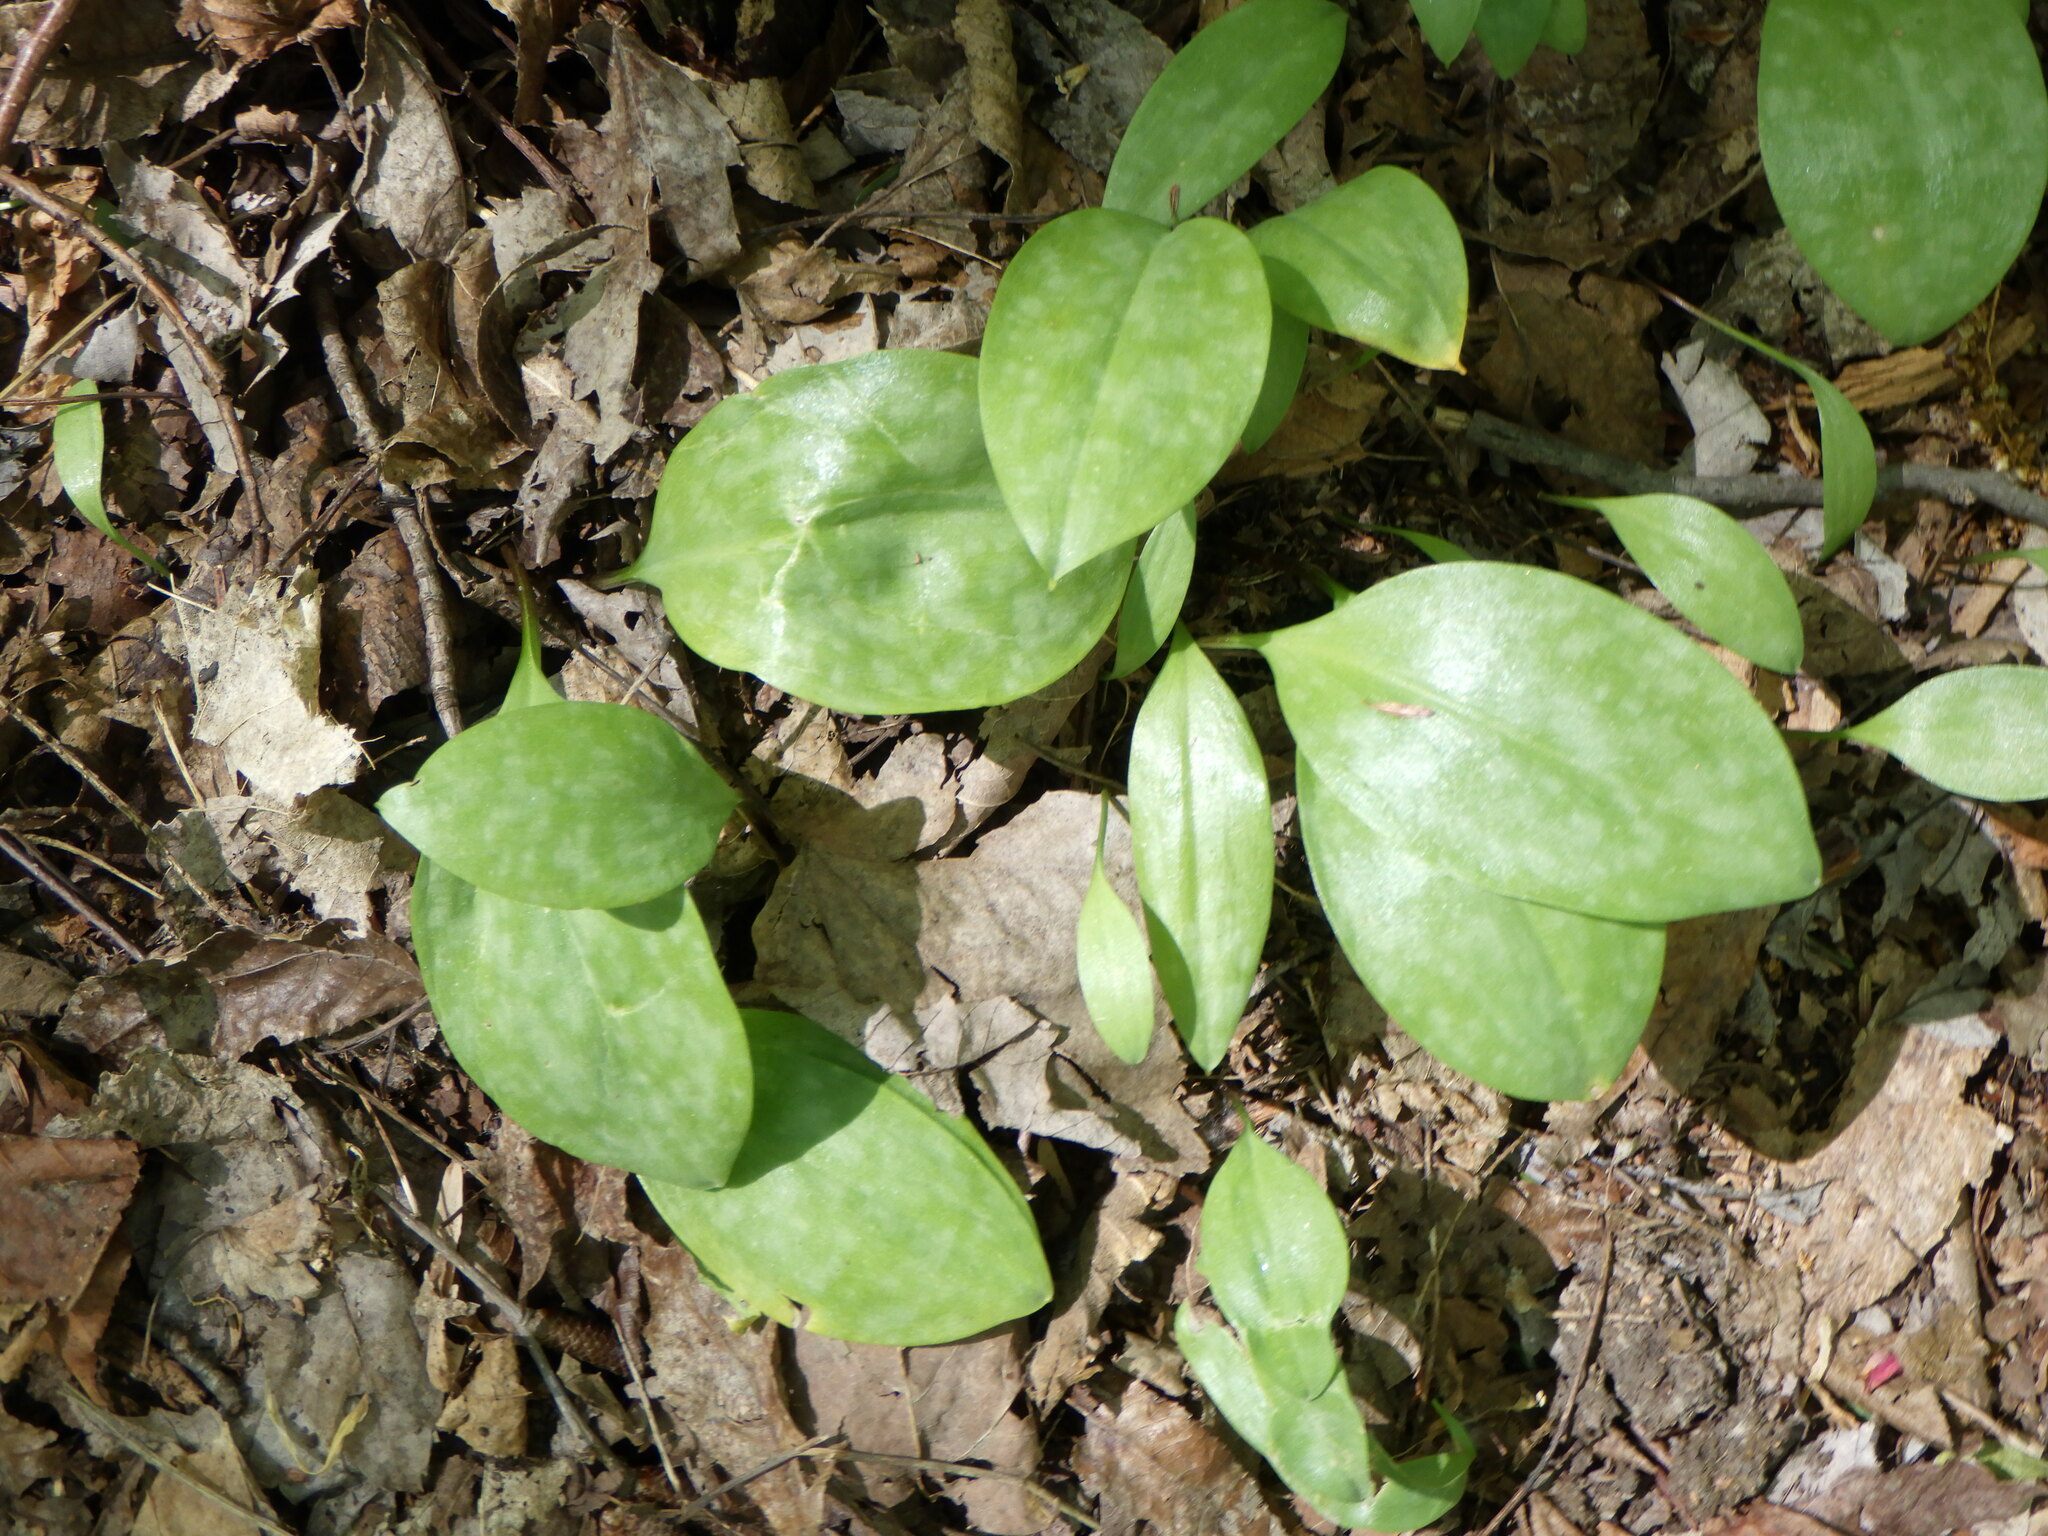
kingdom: Plantae
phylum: Tracheophyta
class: Liliopsida
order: Liliales
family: Liliaceae
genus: Erythronium
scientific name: Erythronium americanum
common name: Yellow adder's-tongue
